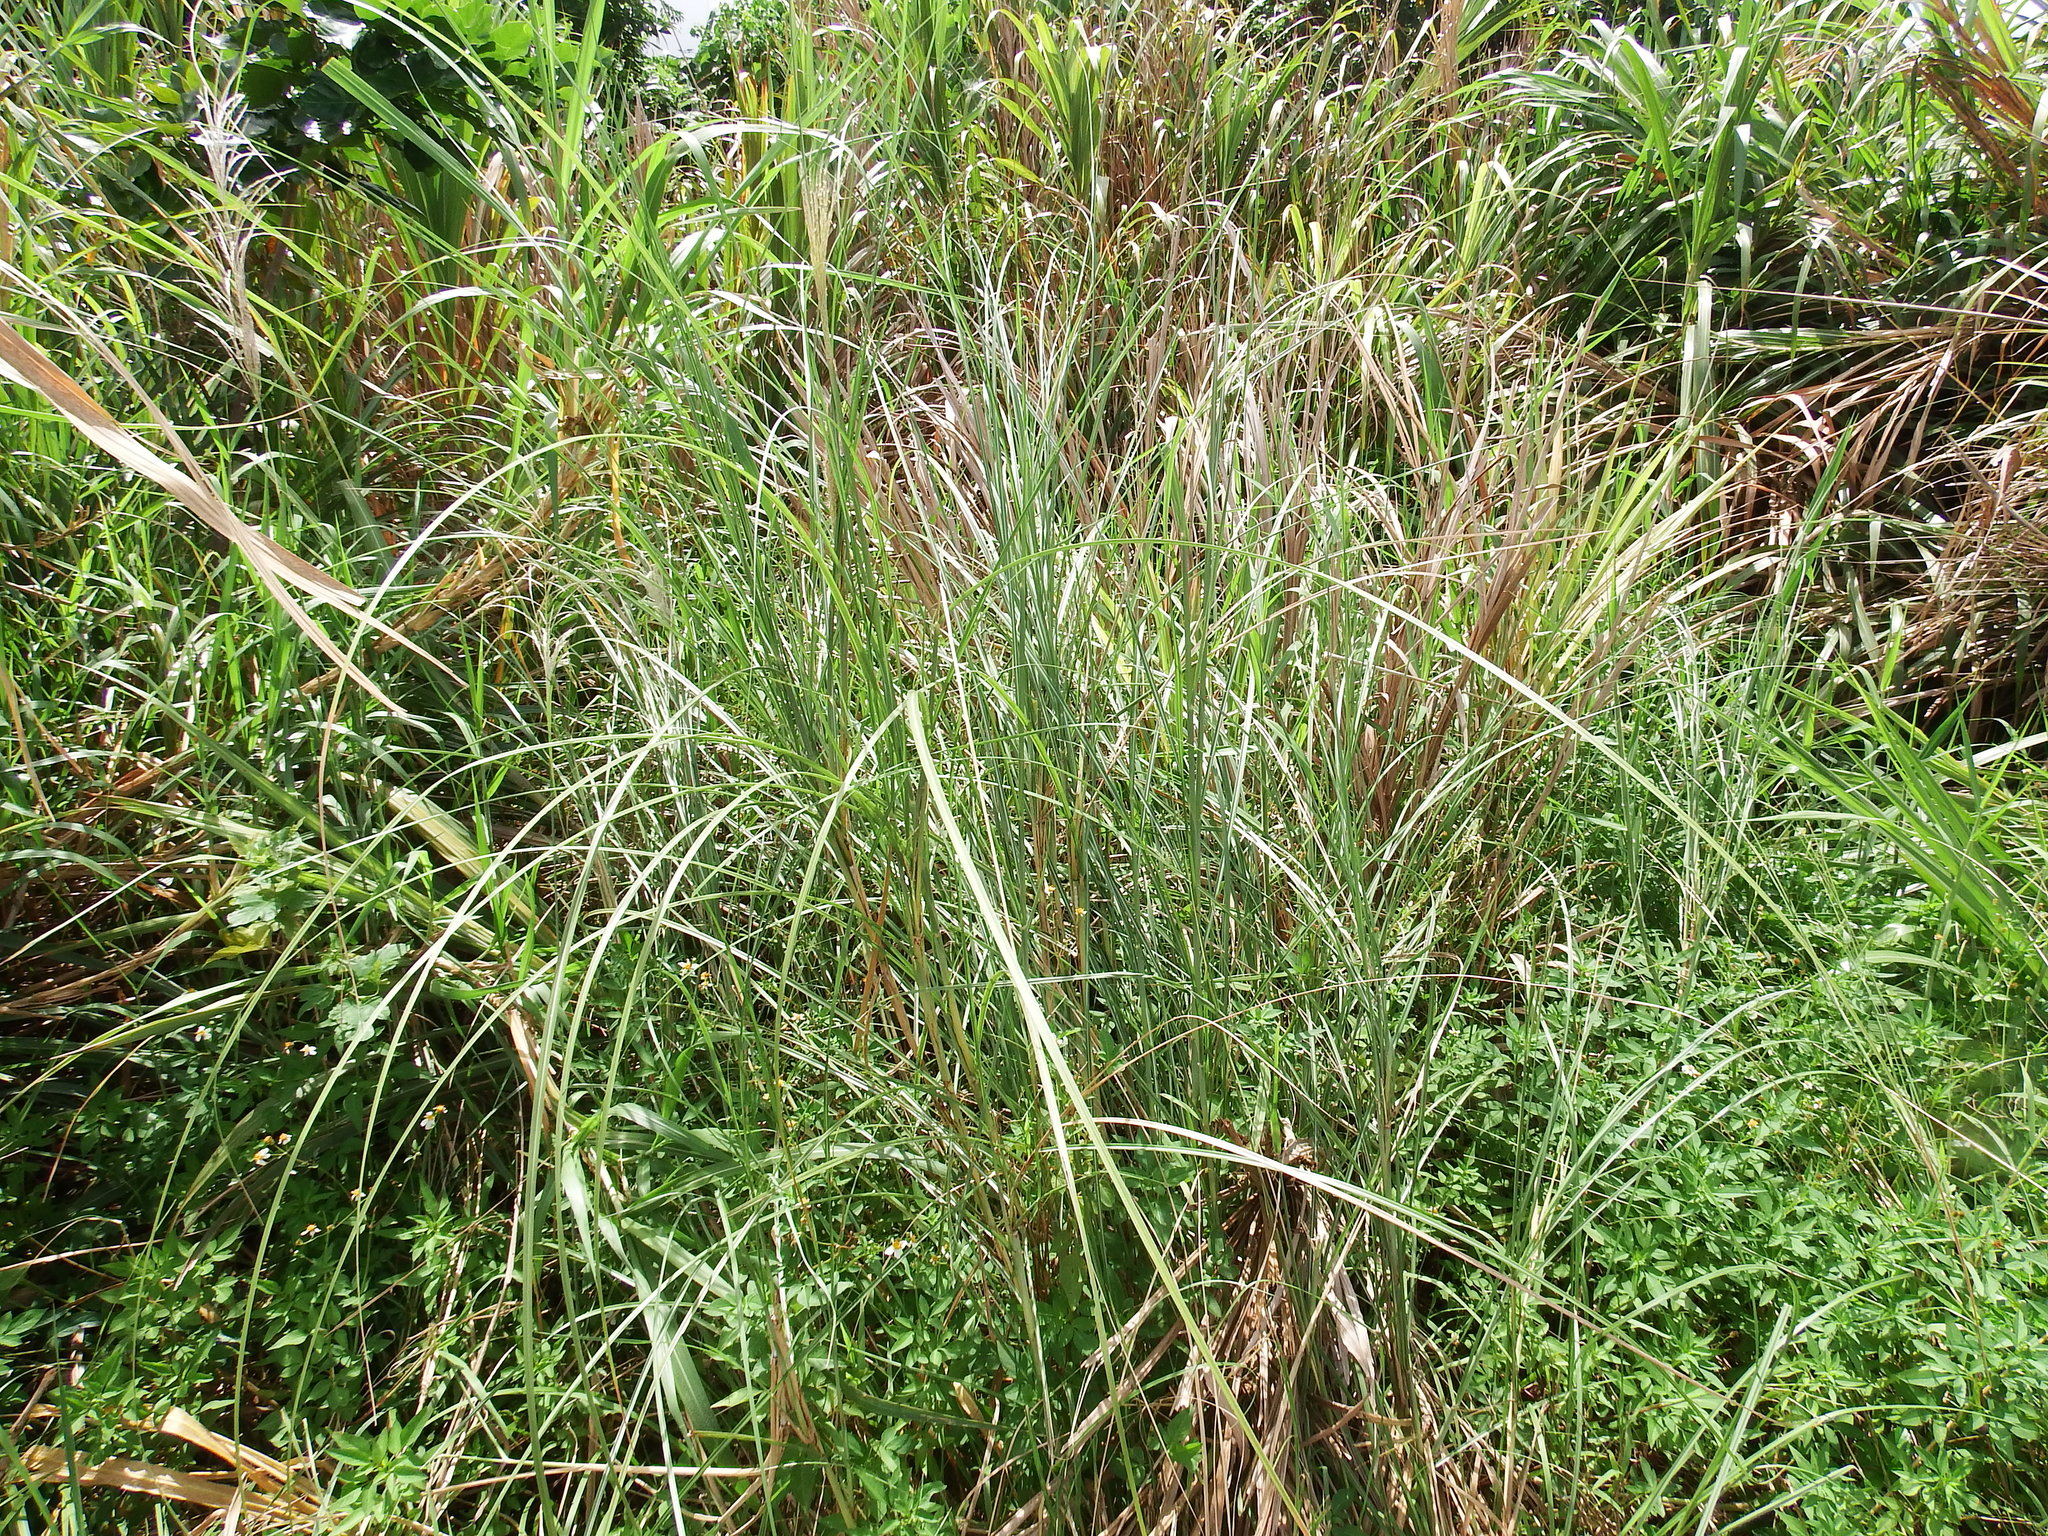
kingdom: Plantae
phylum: Tracheophyta
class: Liliopsida
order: Poales
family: Poaceae
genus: Saccharum
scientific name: Saccharum spontaneum
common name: Wild sugarcane
